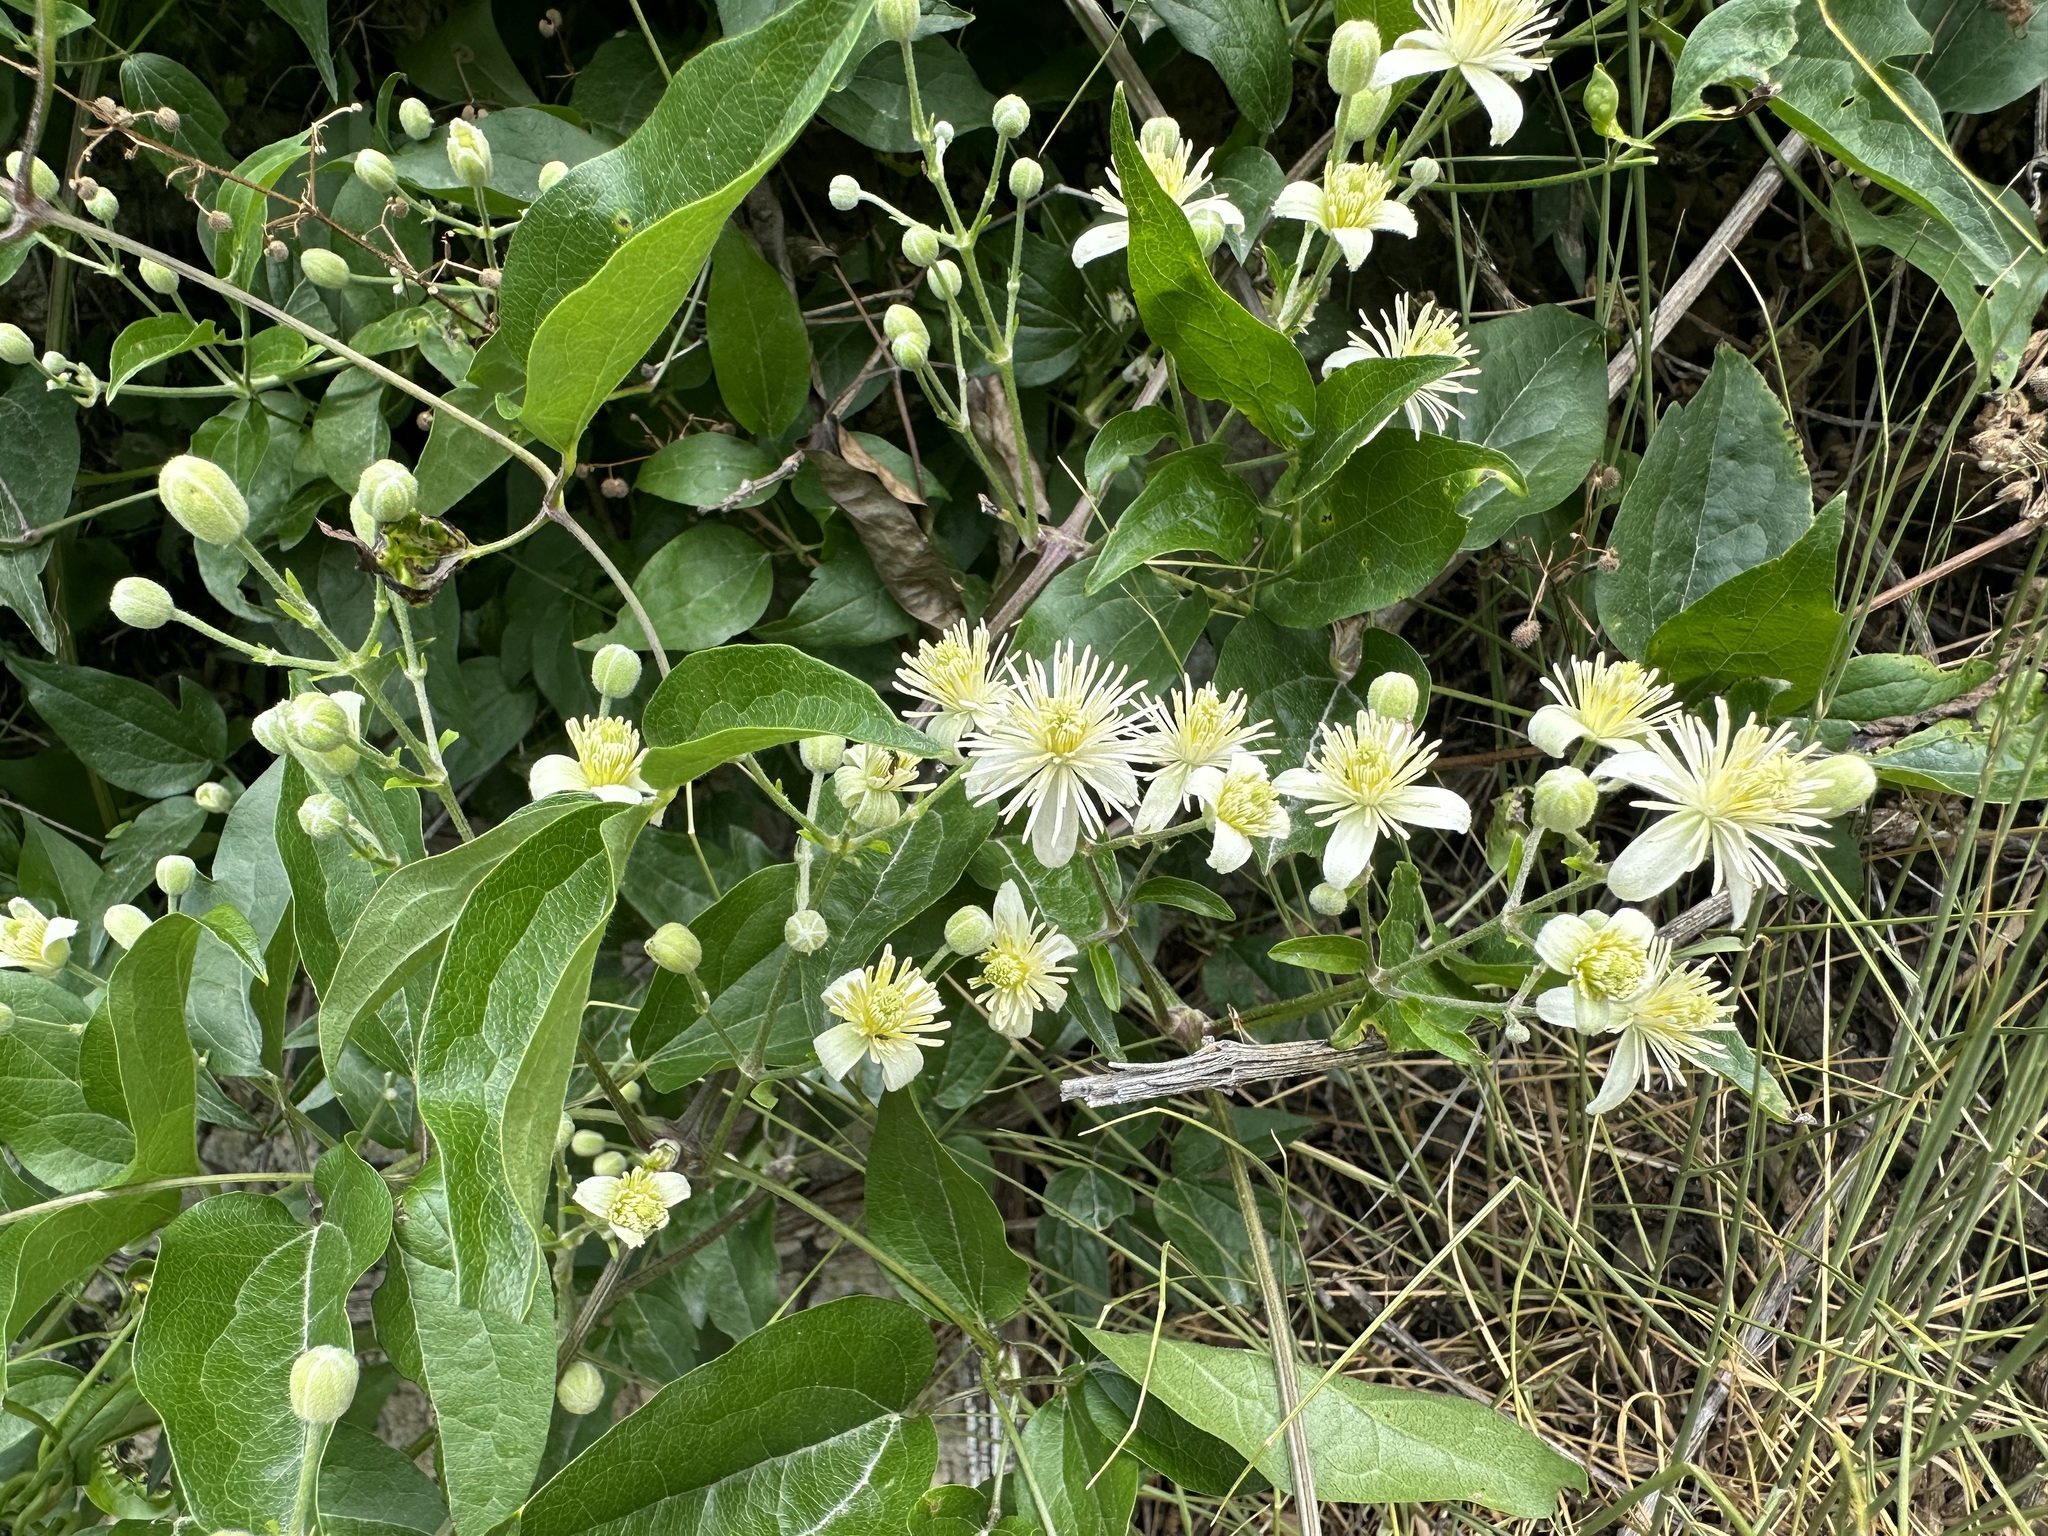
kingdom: Plantae
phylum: Tracheophyta
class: Magnoliopsida
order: Ranunculales
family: Ranunculaceae
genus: Clematis
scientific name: Clematis vitalba
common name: Evergreen clematis
